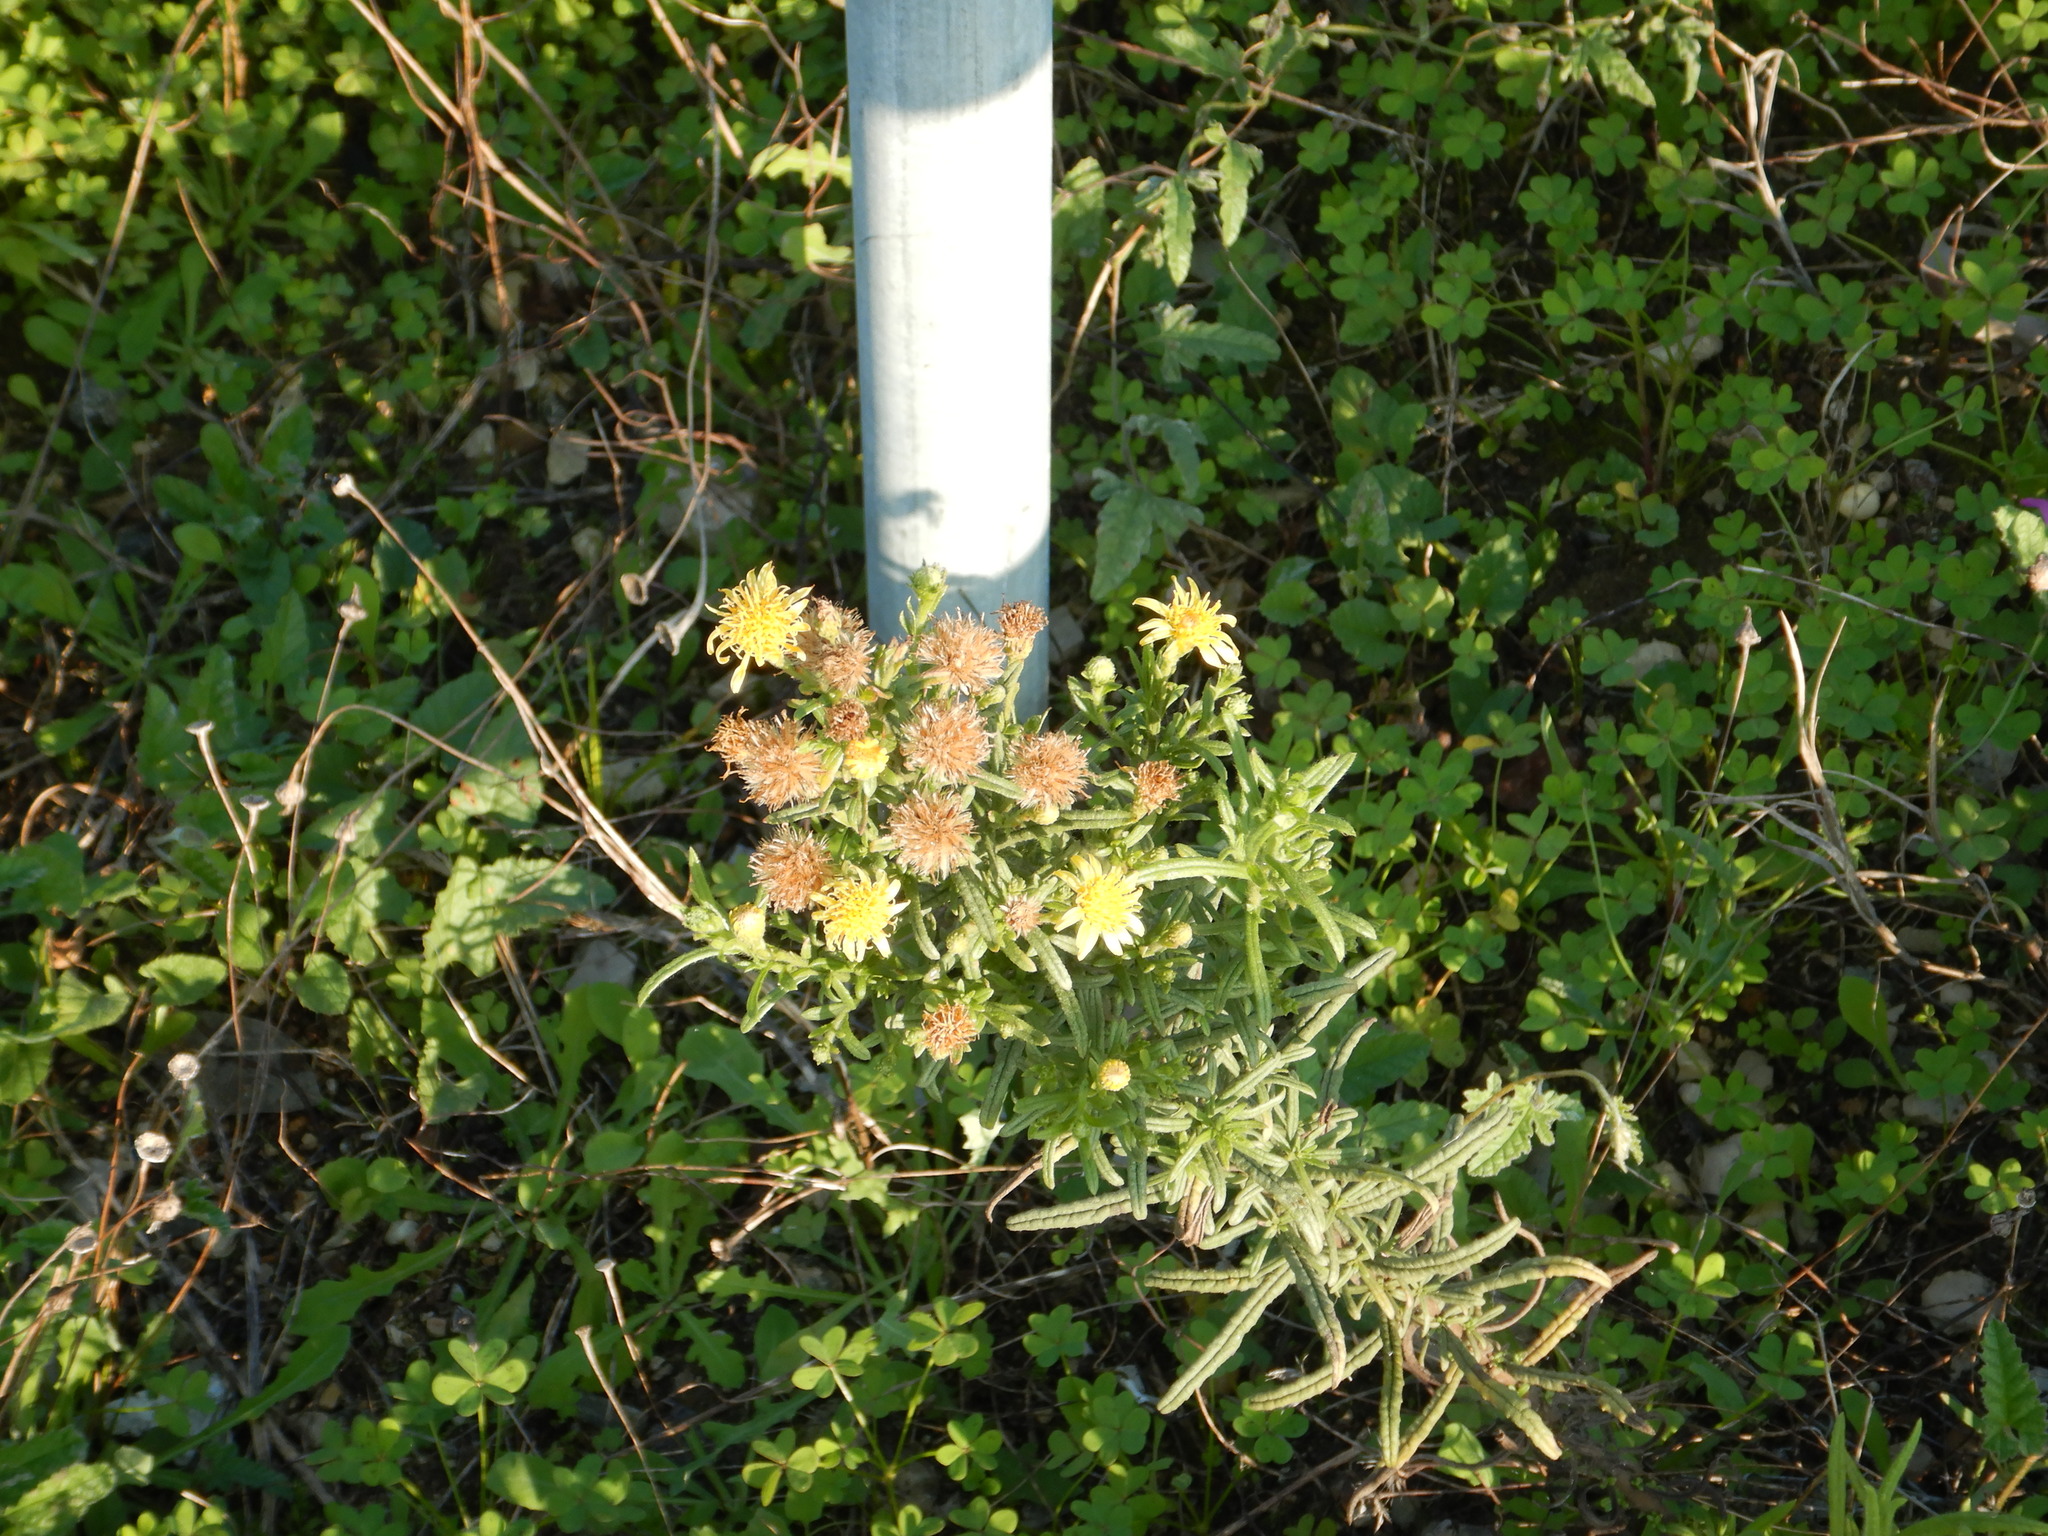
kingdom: Plantae
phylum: Tracheophyta
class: Magnoliopsida
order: Asterales
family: Asteraceae
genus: Dittrichia
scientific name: Dittrichia viscosa
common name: Woody fleabane
